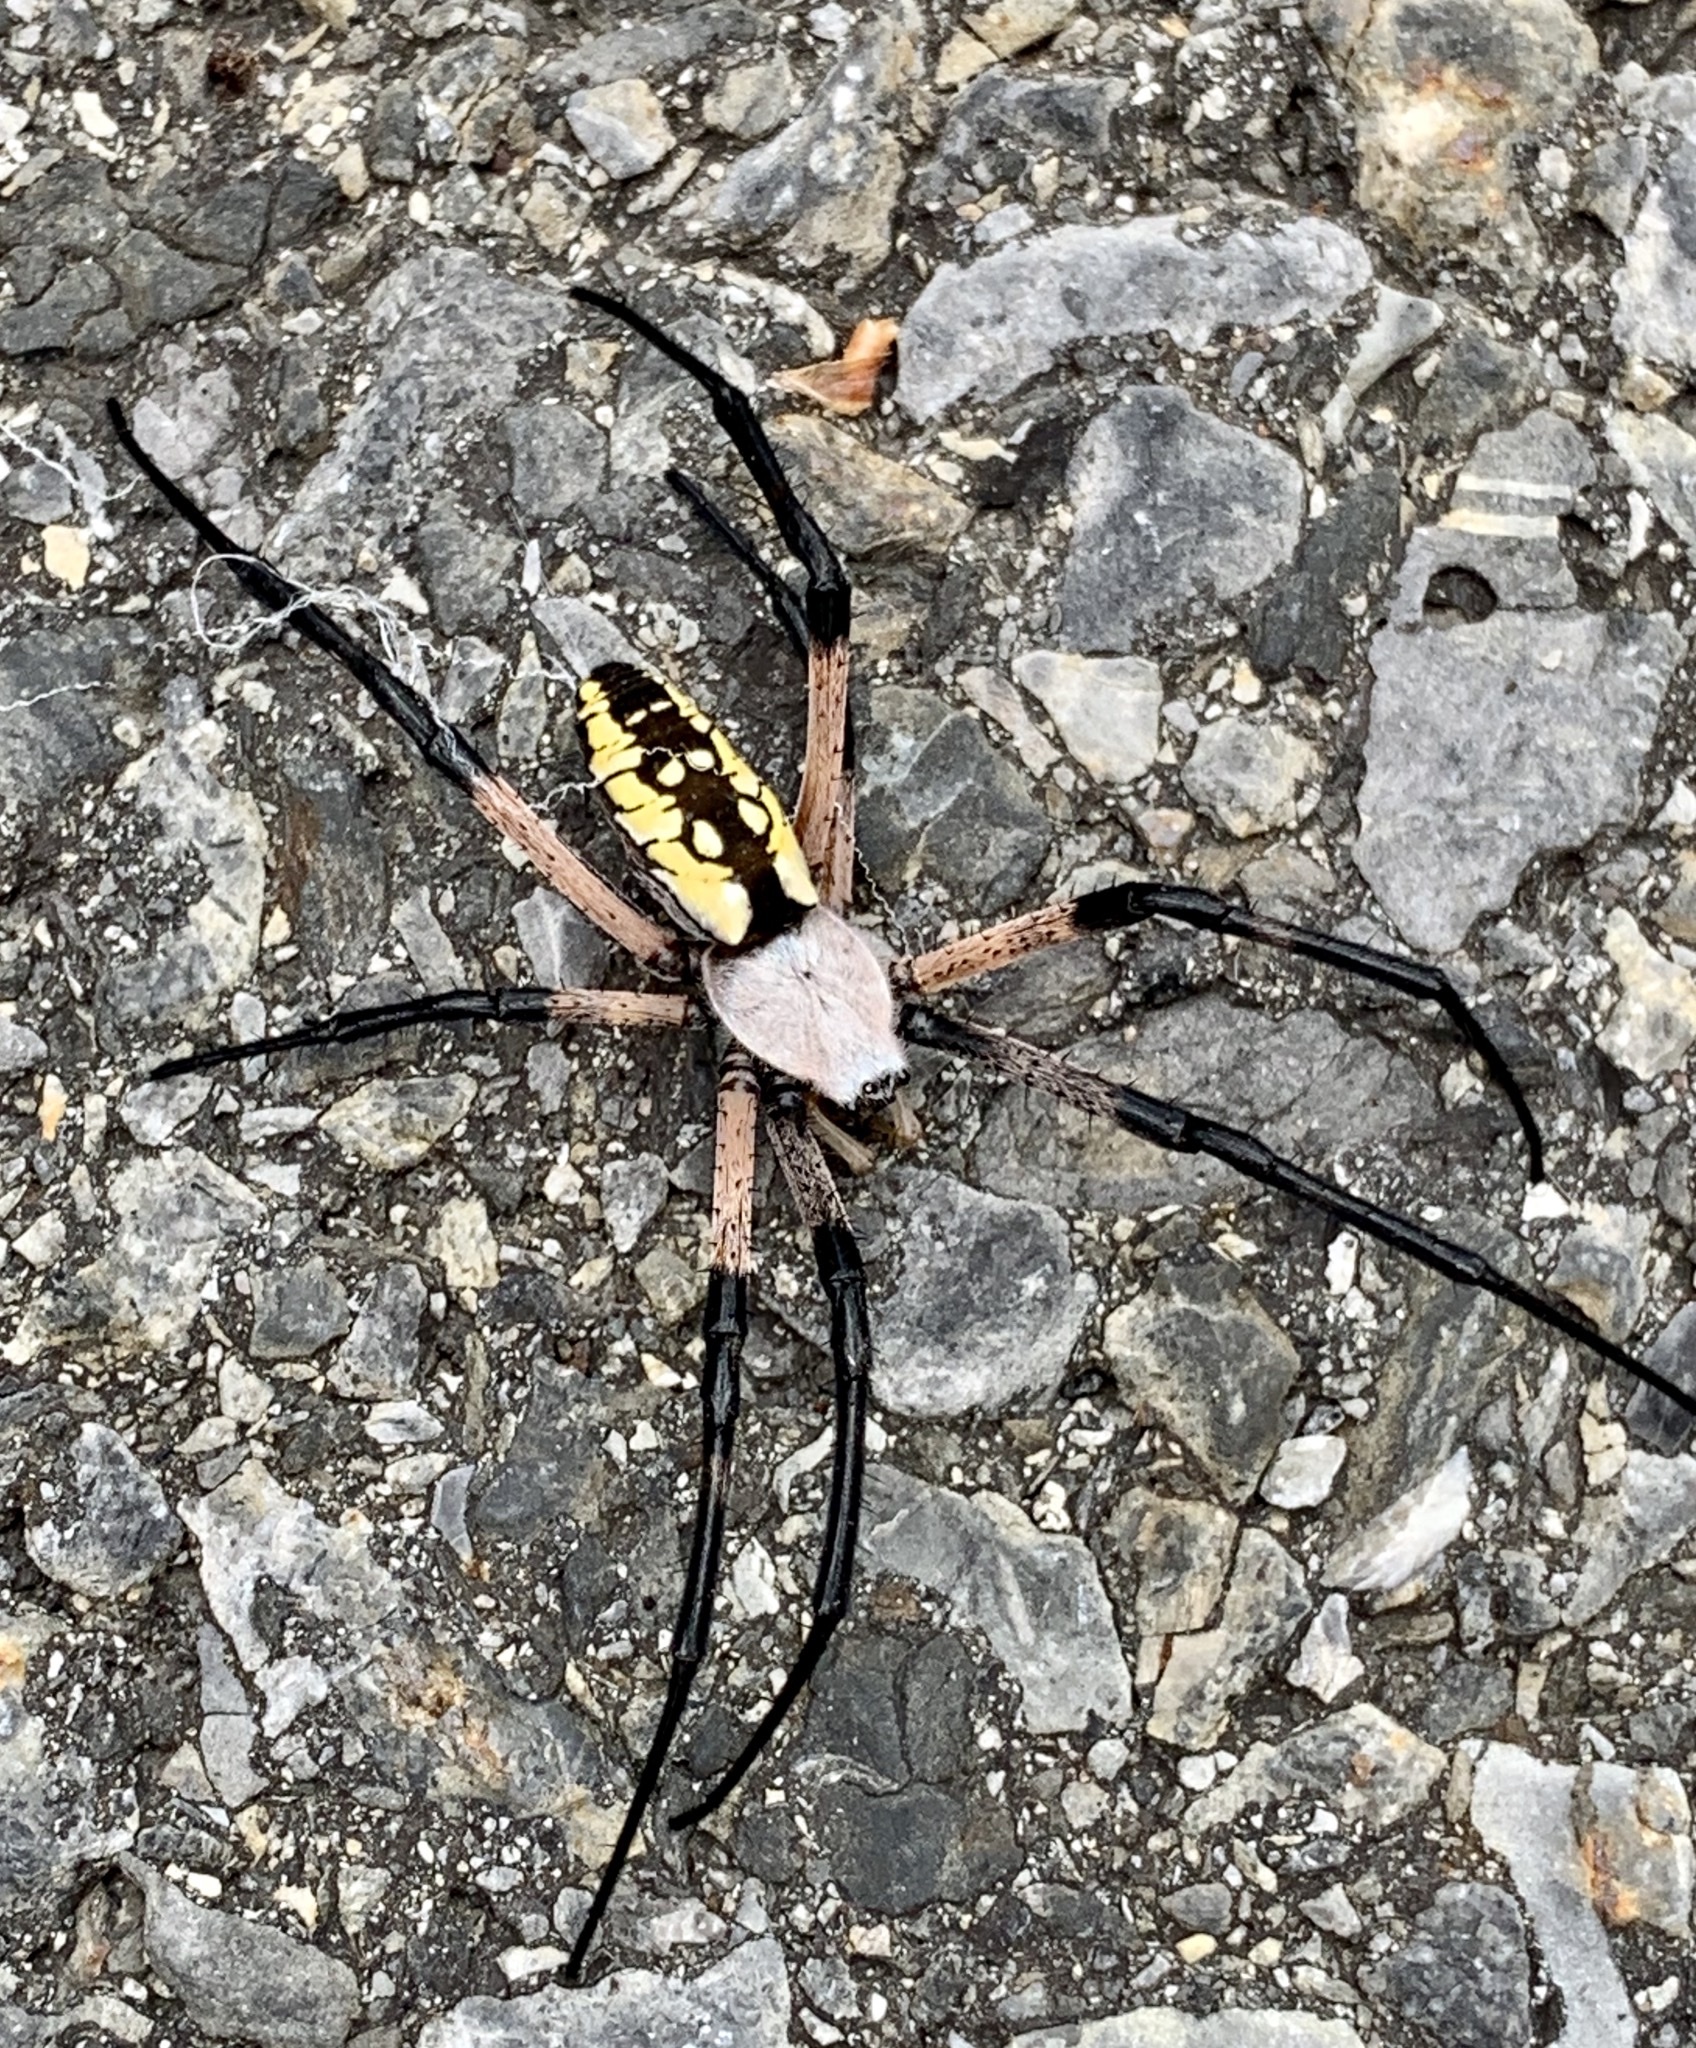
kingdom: Animalia
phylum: Arthropoda
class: Arachnida
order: Araneae
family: Araneidae
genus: Argiope
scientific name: Argiope aurantia
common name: Orb weavers
